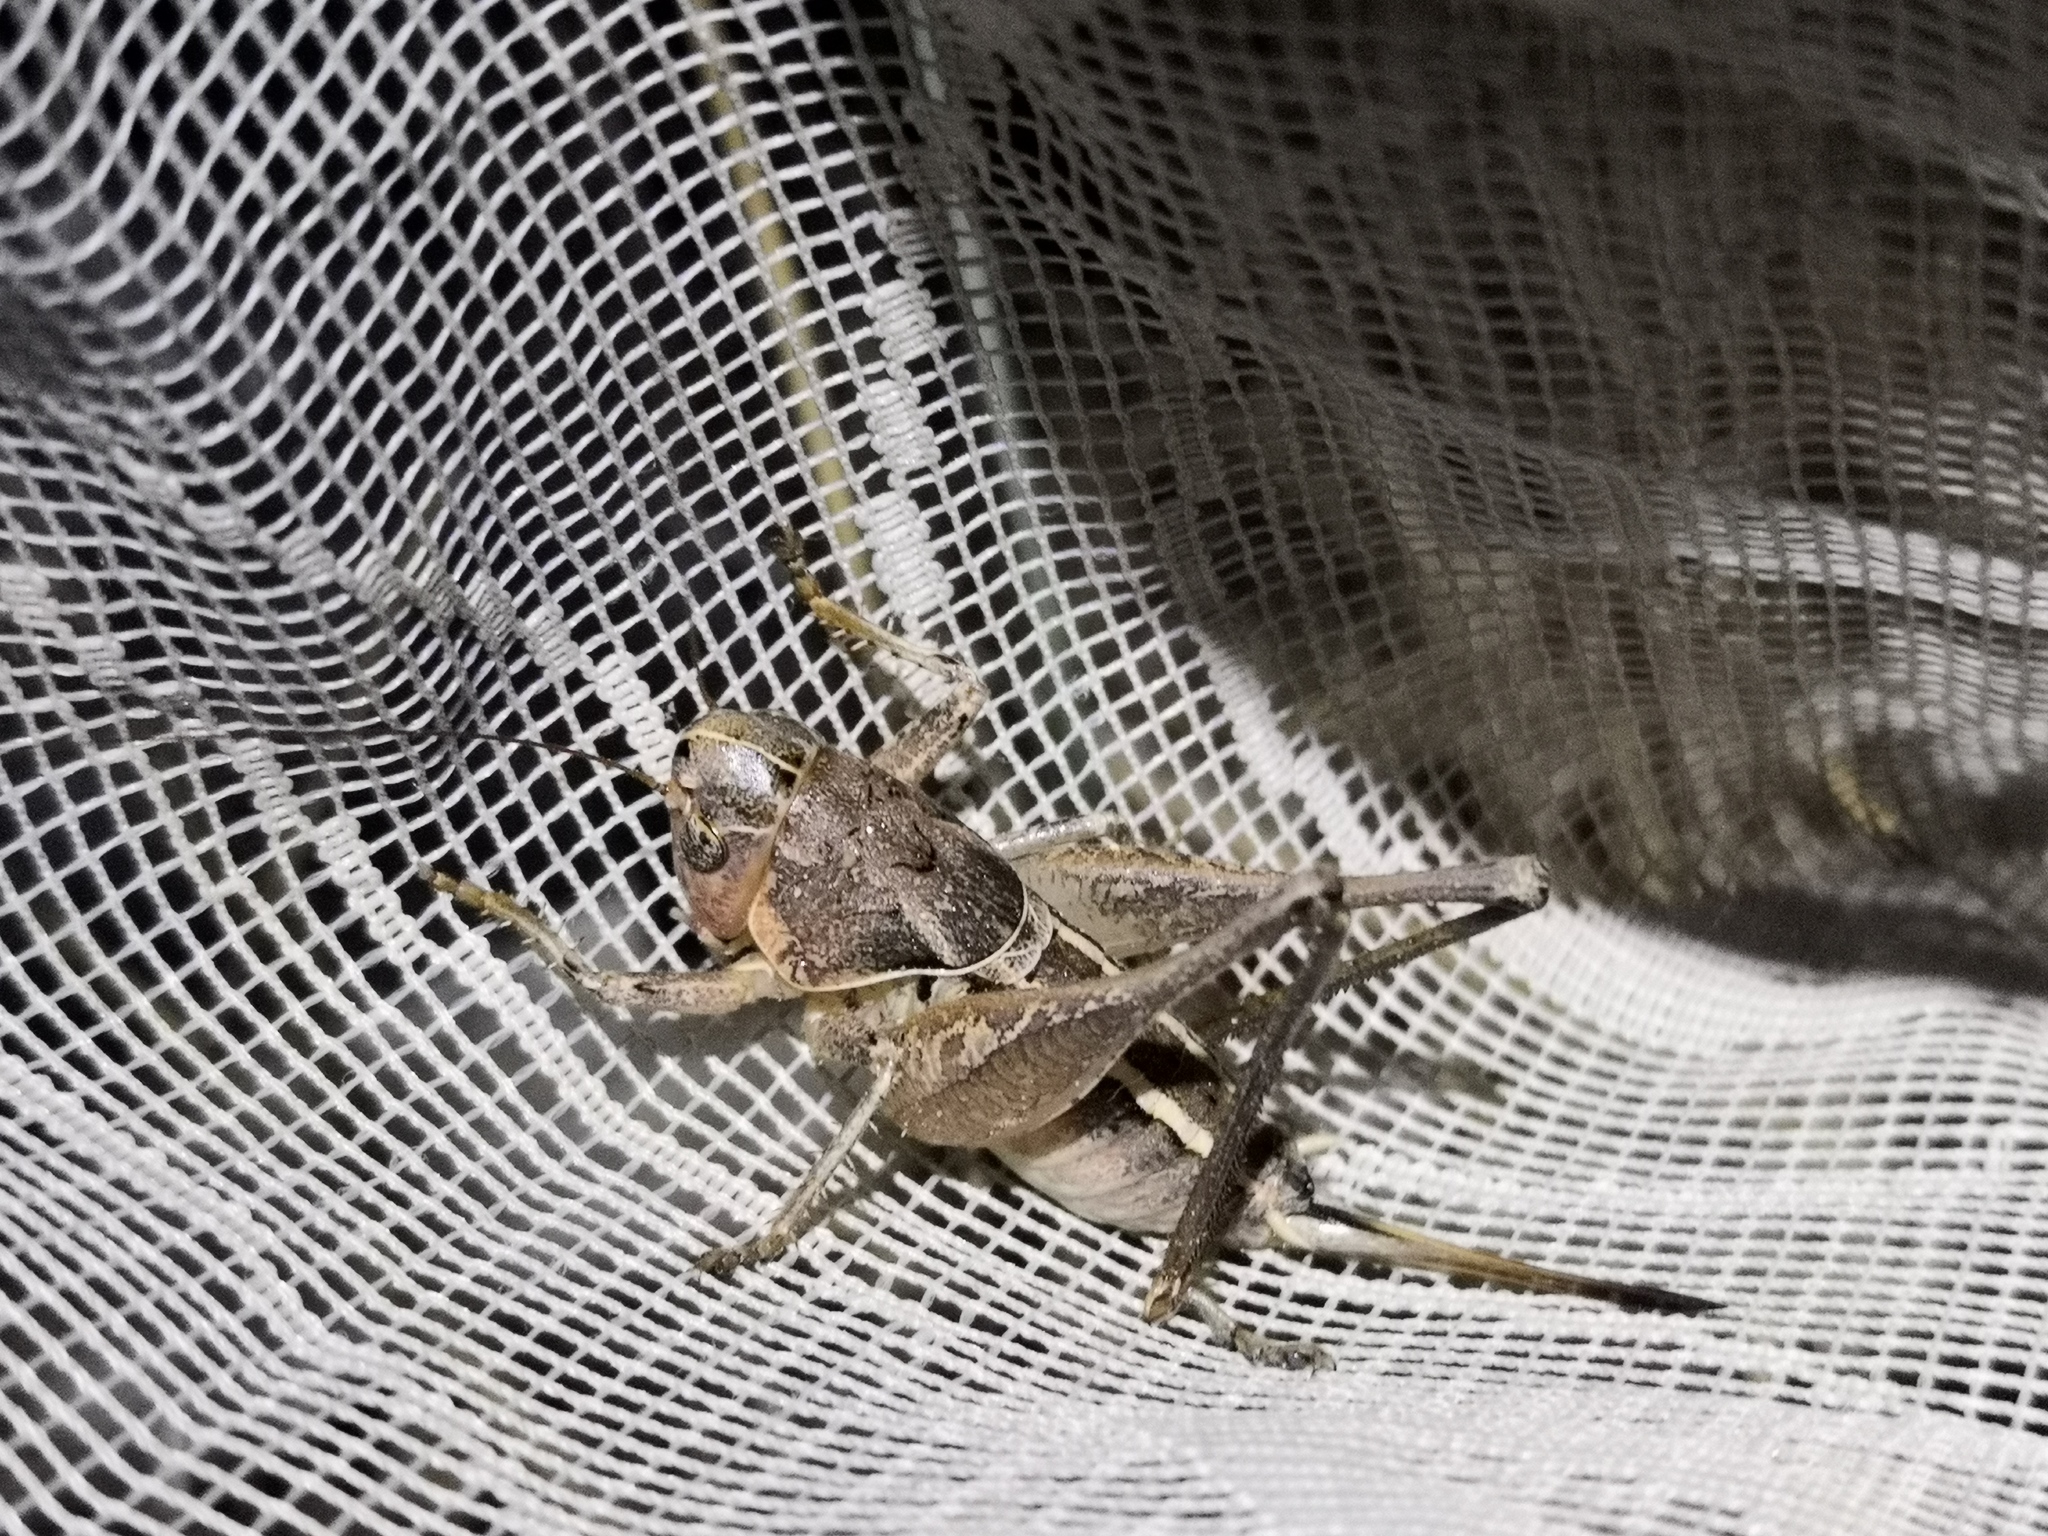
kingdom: Animalia
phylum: Arthropoda
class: Insecta
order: Orthoptera
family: Tettigoniidae
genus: Bucephaloptera
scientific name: Bucephaloptera bucephala
